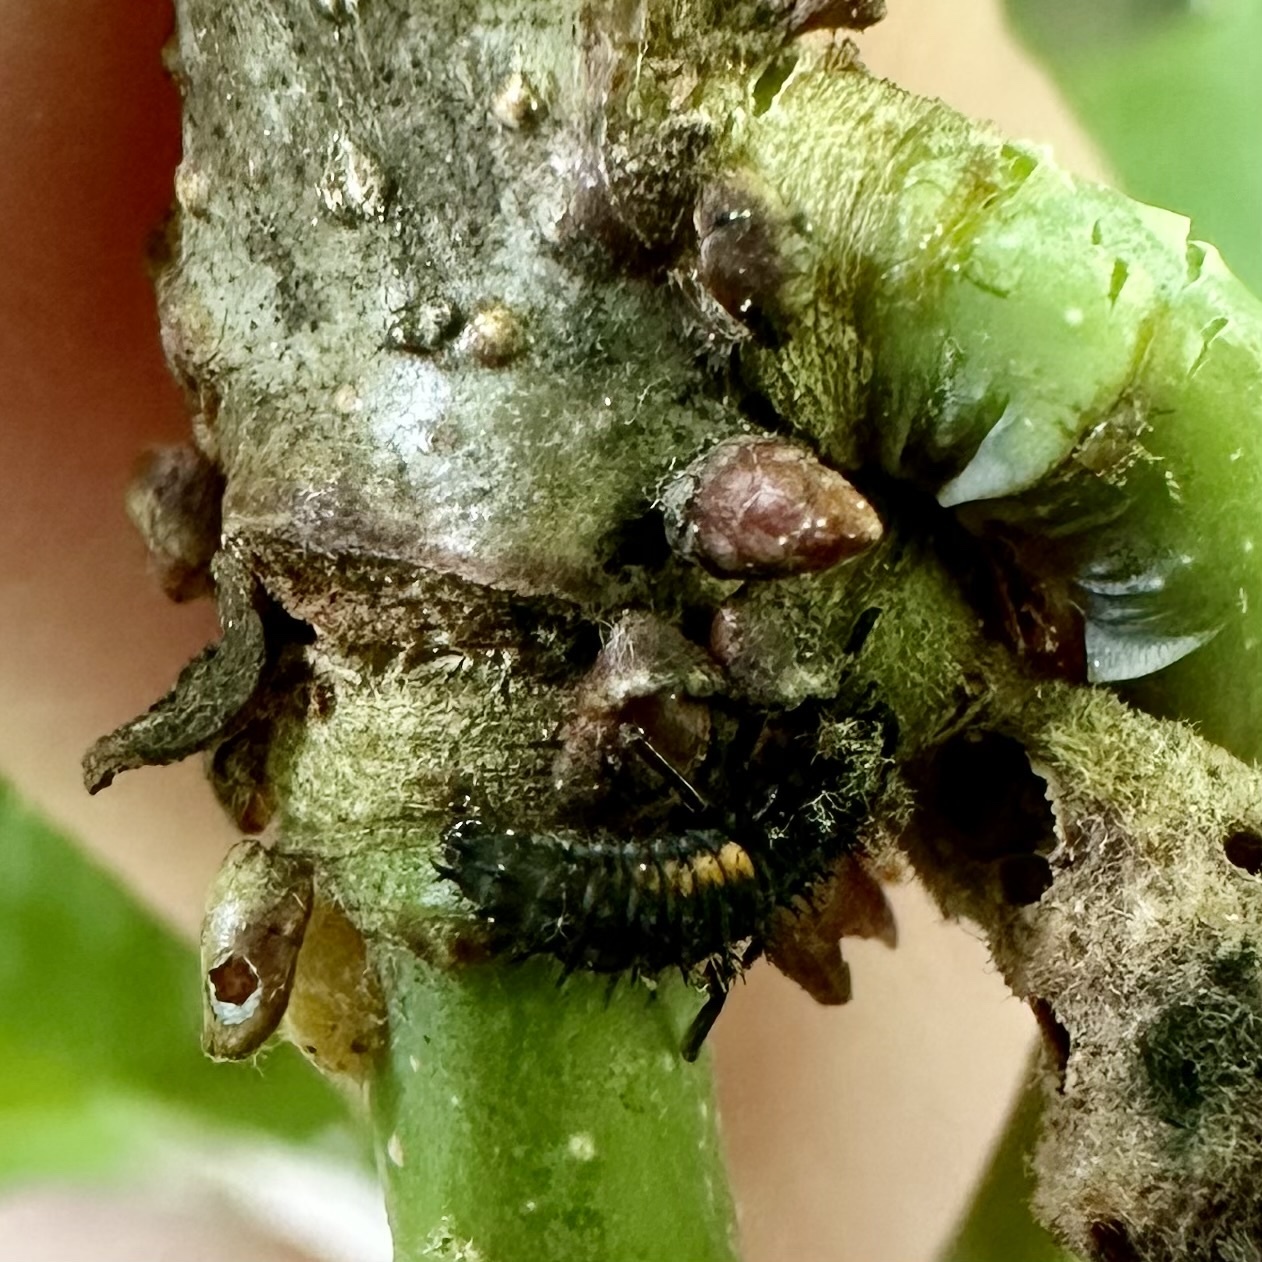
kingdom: Animalia
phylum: Arthropoda
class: Insecta
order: Hymenoptera
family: Cynipidae
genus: Acraspis
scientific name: Acraspis
